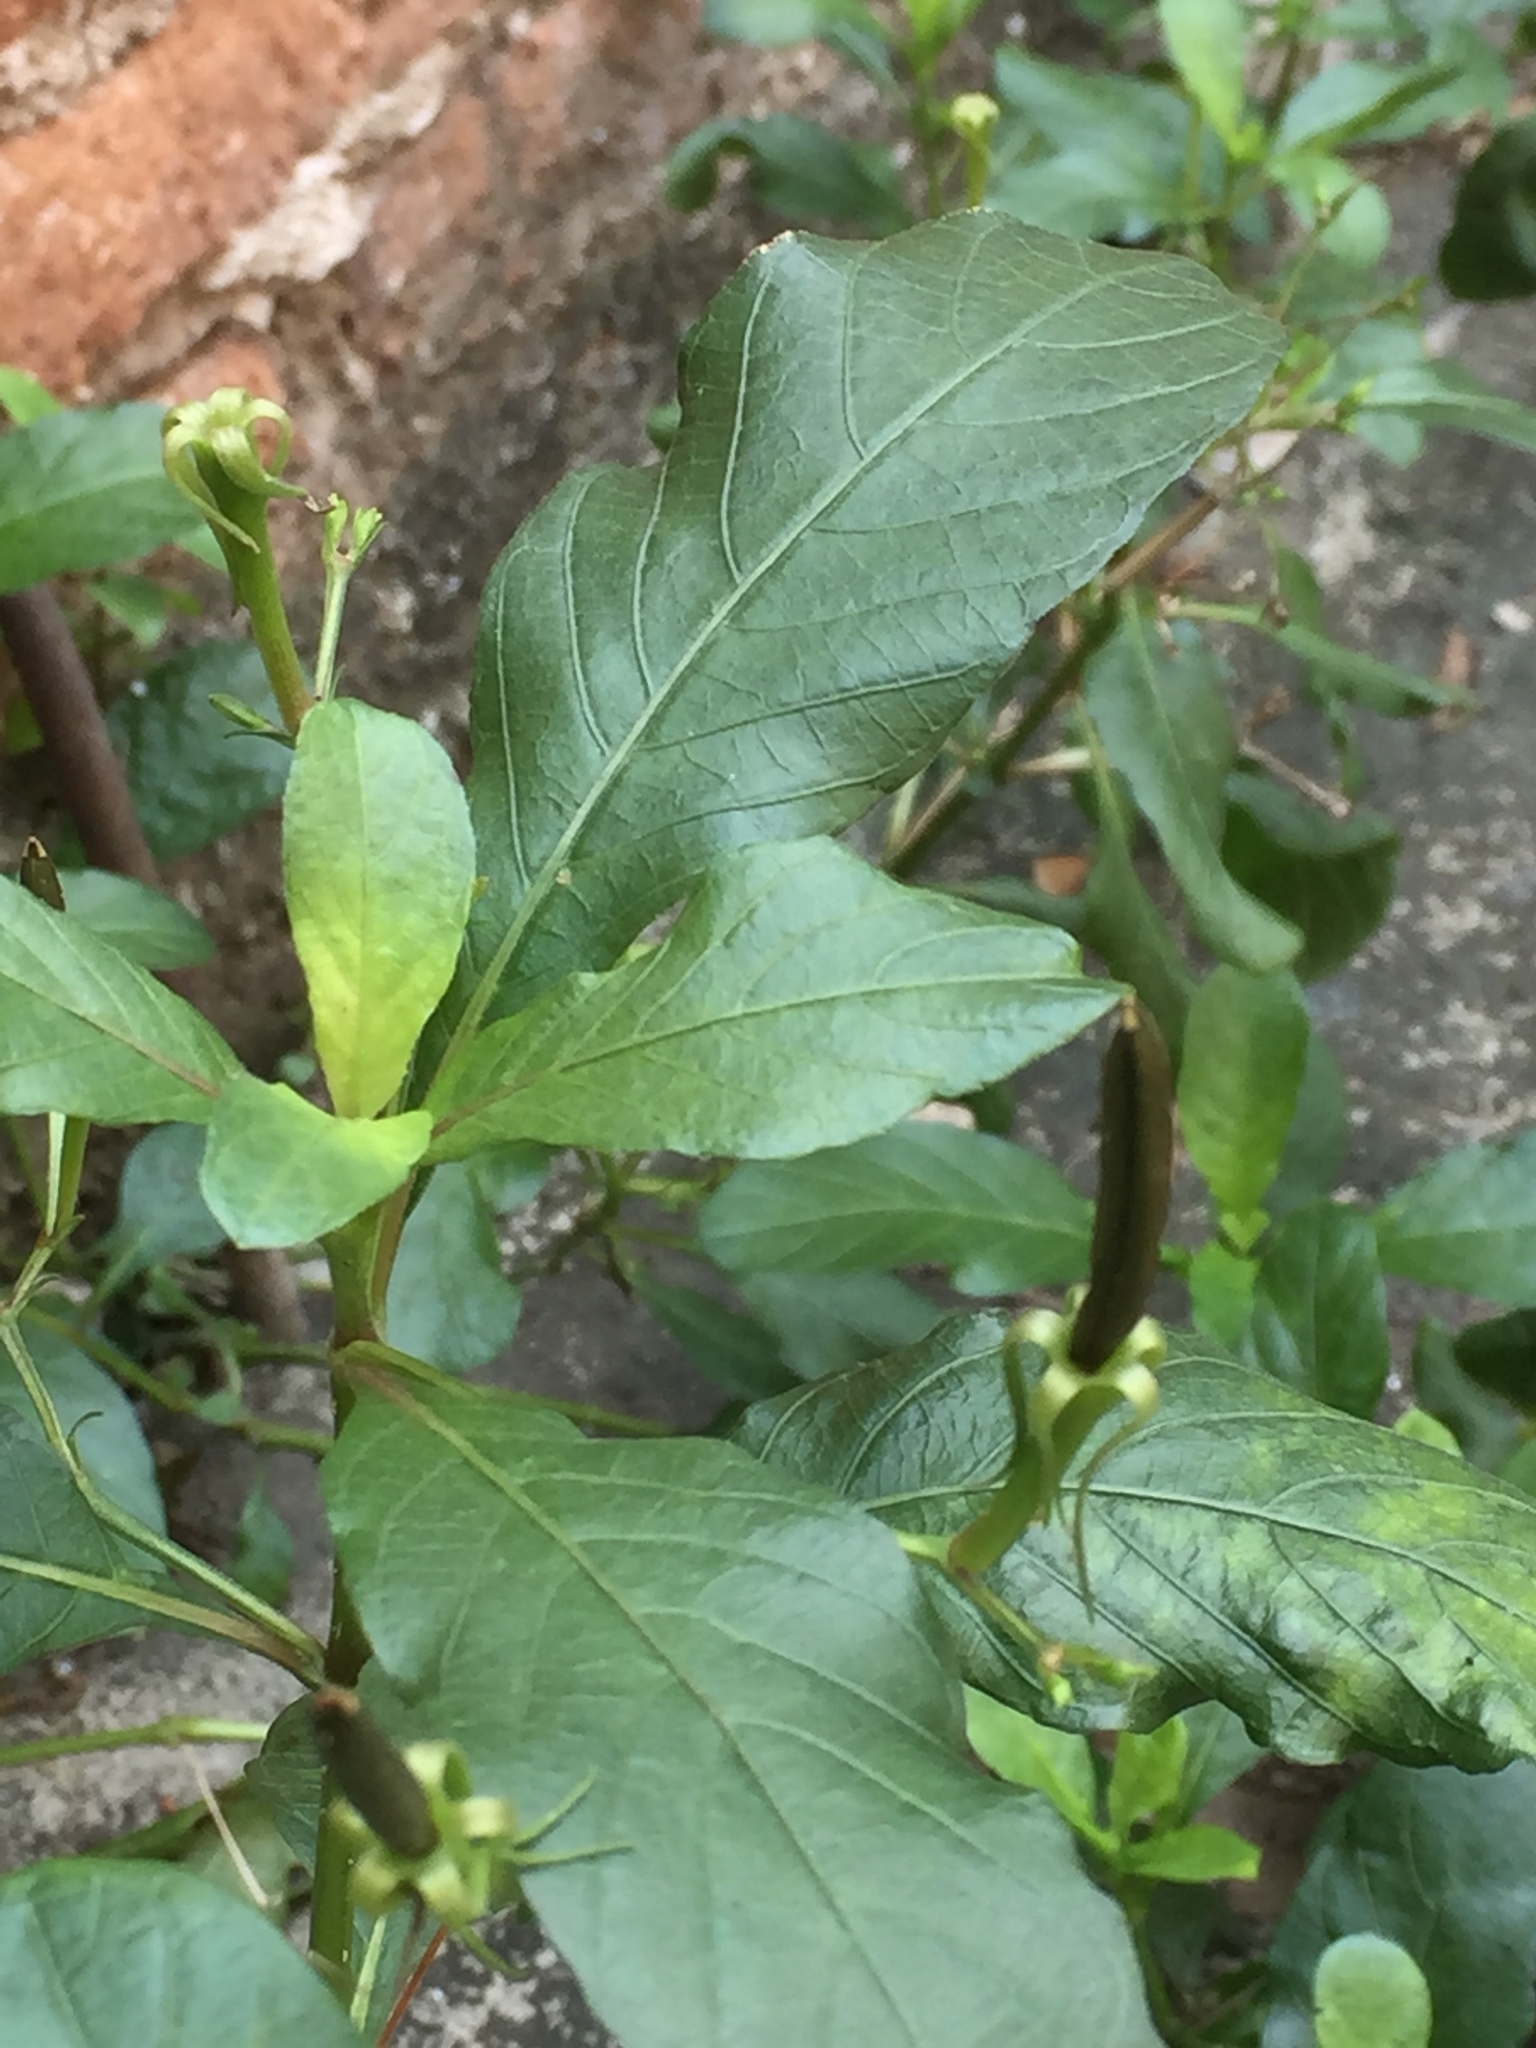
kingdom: Plantae
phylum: Tracheophyta
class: Magnoliopsida
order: Lamiales
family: Acanthaceae
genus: Ruellia
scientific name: Ruellia tuberosa
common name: Devil's bit
